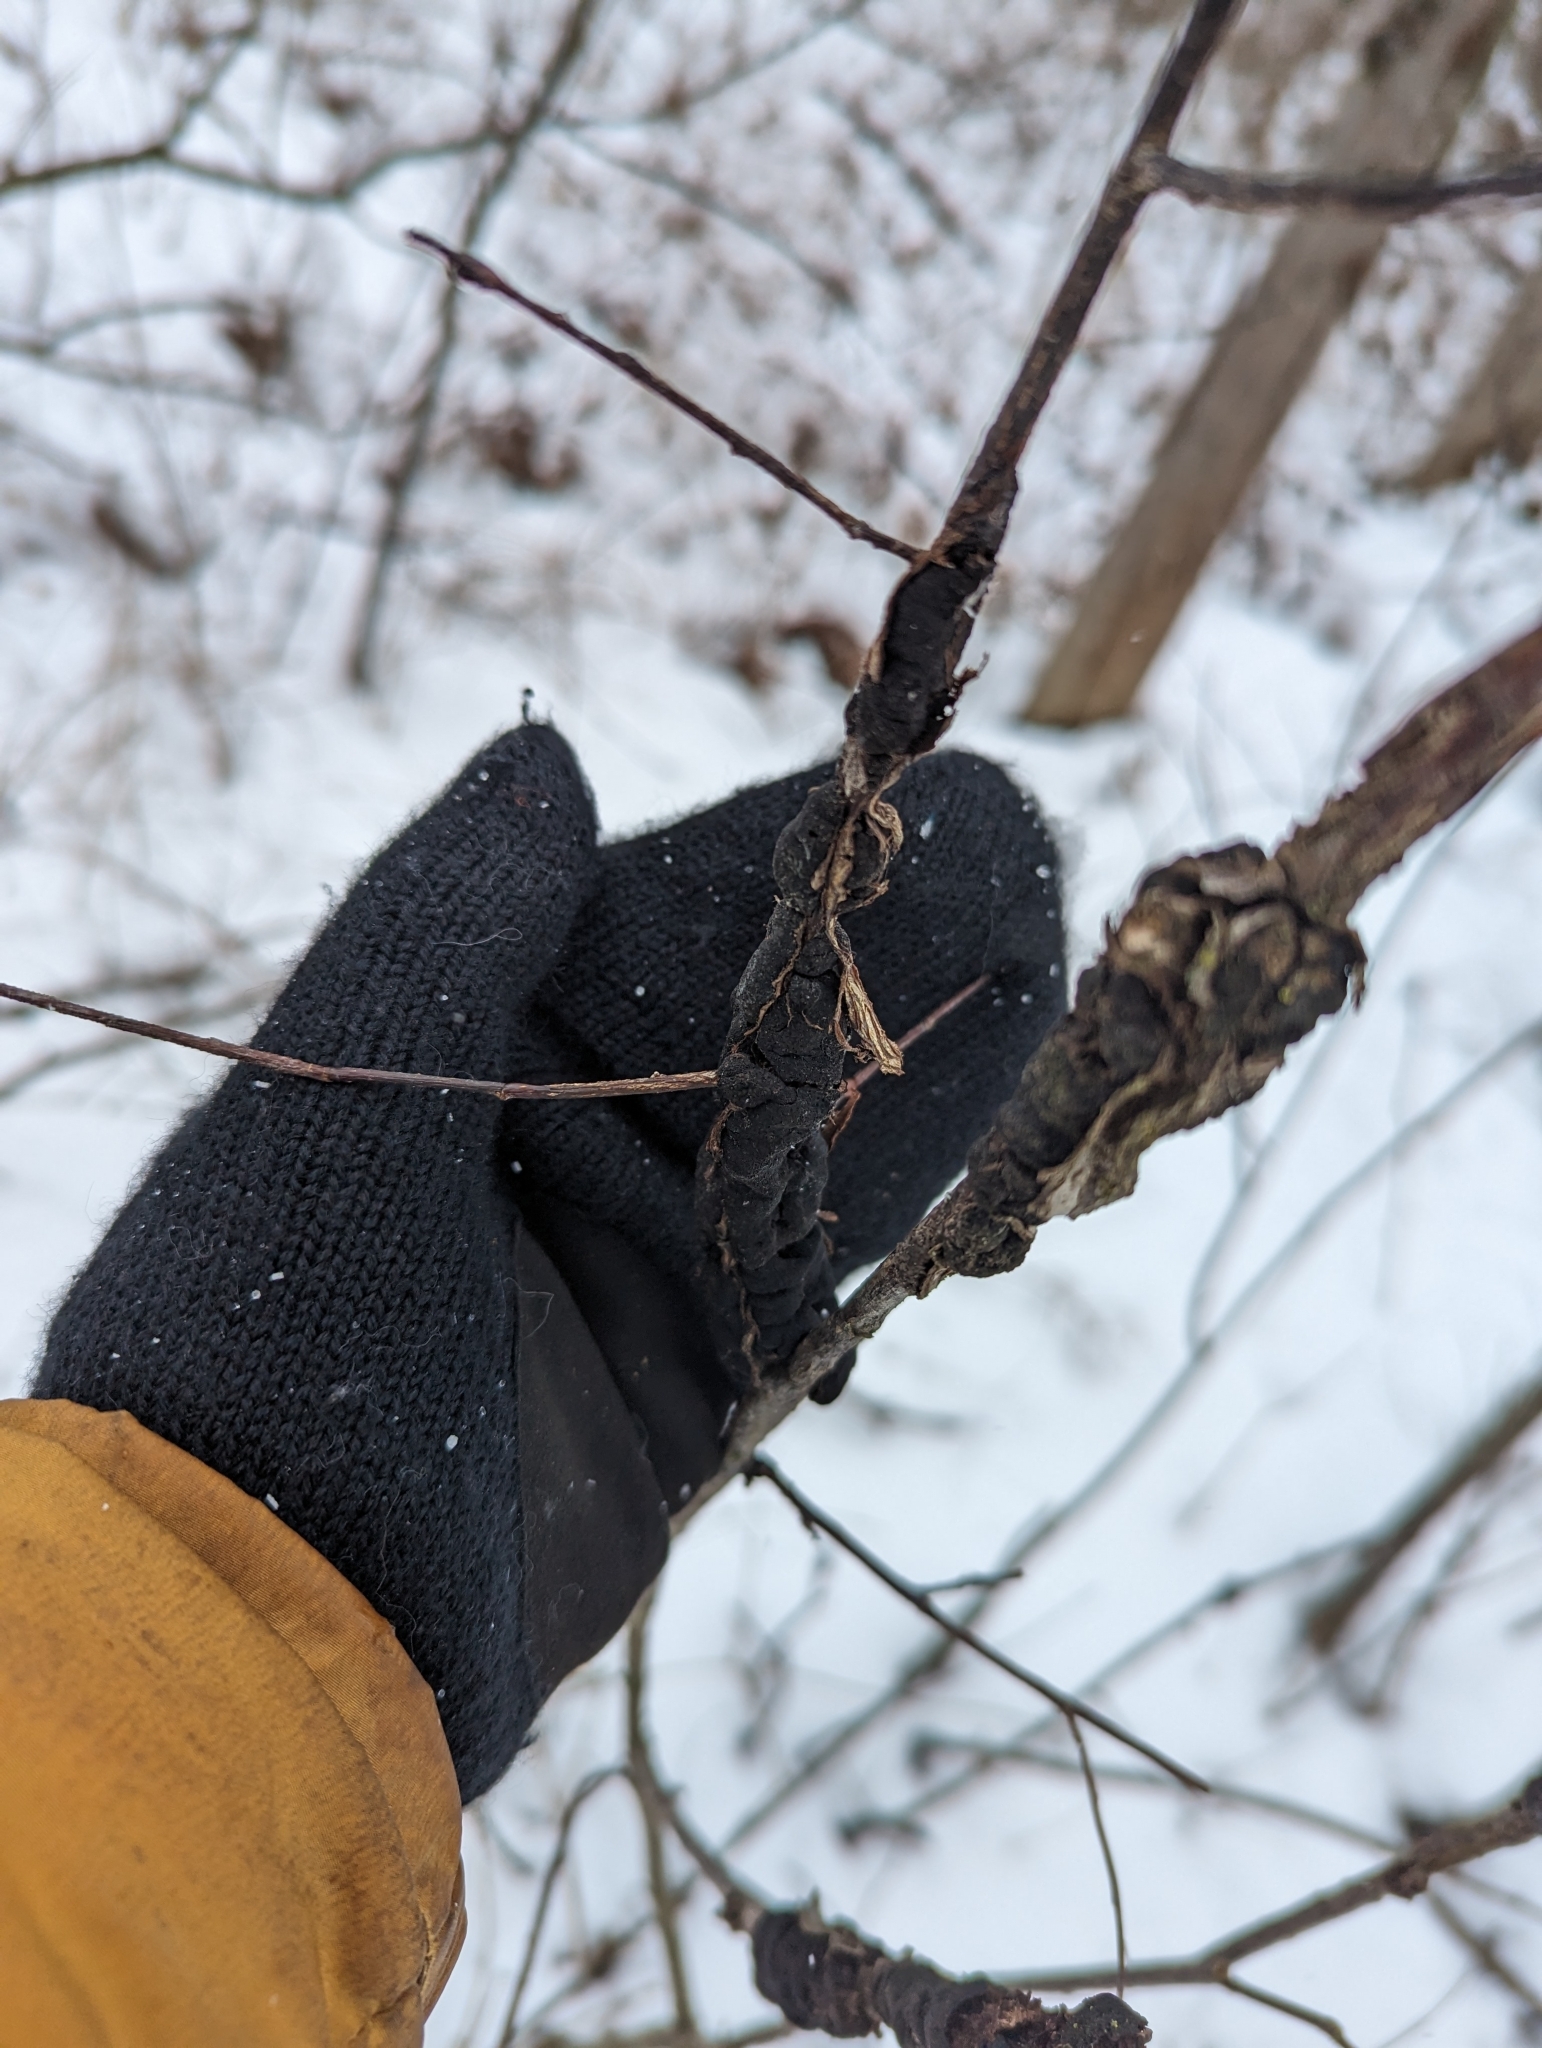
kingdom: Fungi
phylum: Ascomycota
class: Dothideomycetes
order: Venturiales
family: Venturiaceae
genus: Apiosporina
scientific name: Apiosporina morbosa
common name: Black knot
